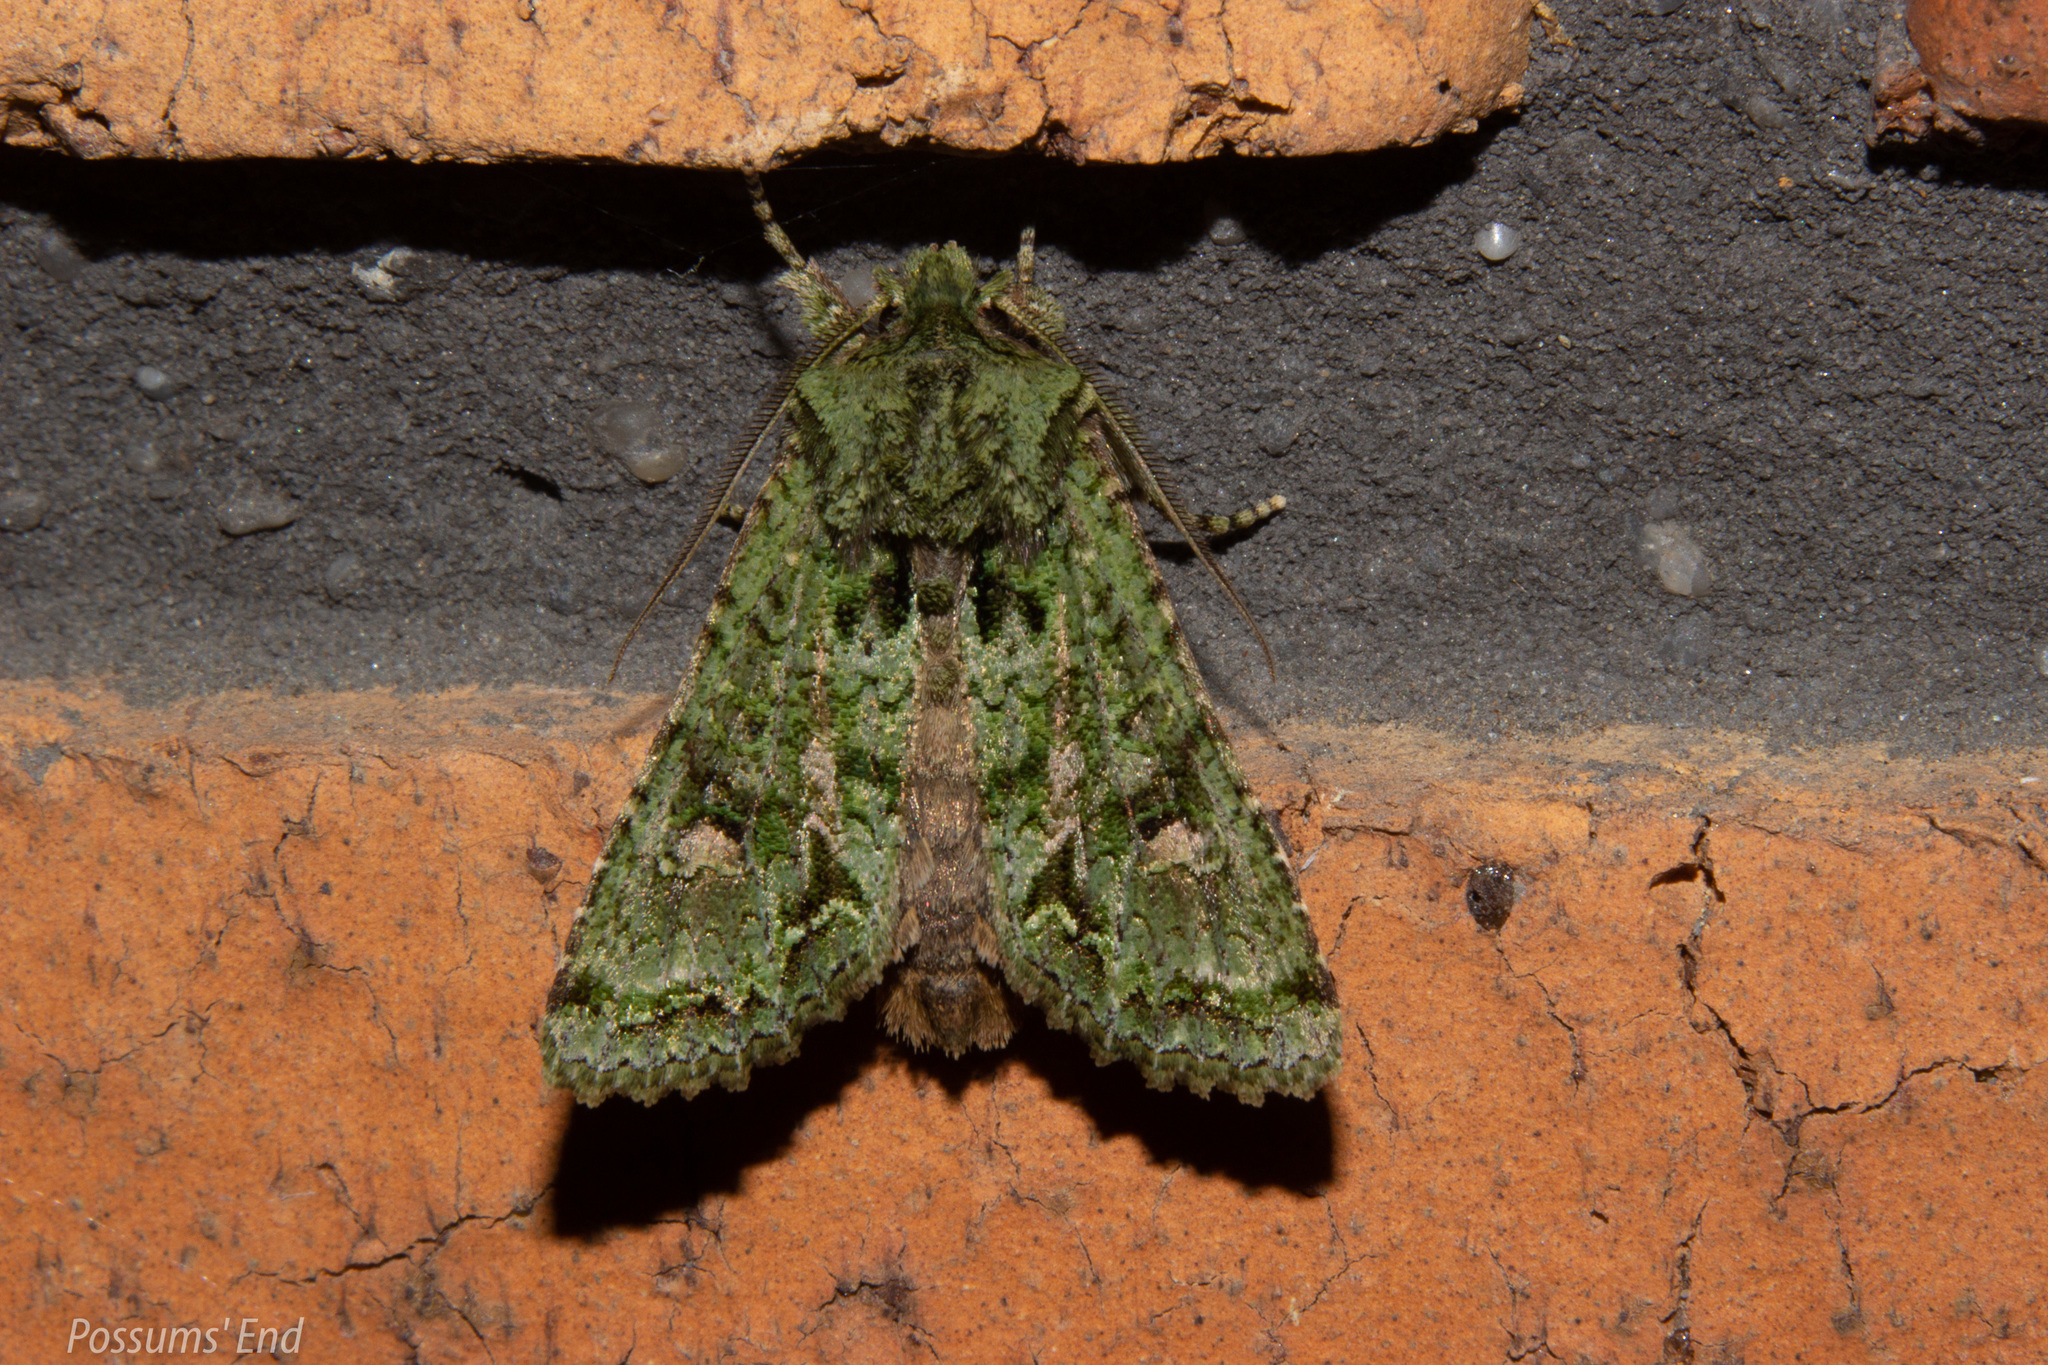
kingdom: Animalia
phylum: Arthropoda
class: Insecta
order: Lepidoptera
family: Noctuidae
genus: Ichneutica
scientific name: Ichneutica
